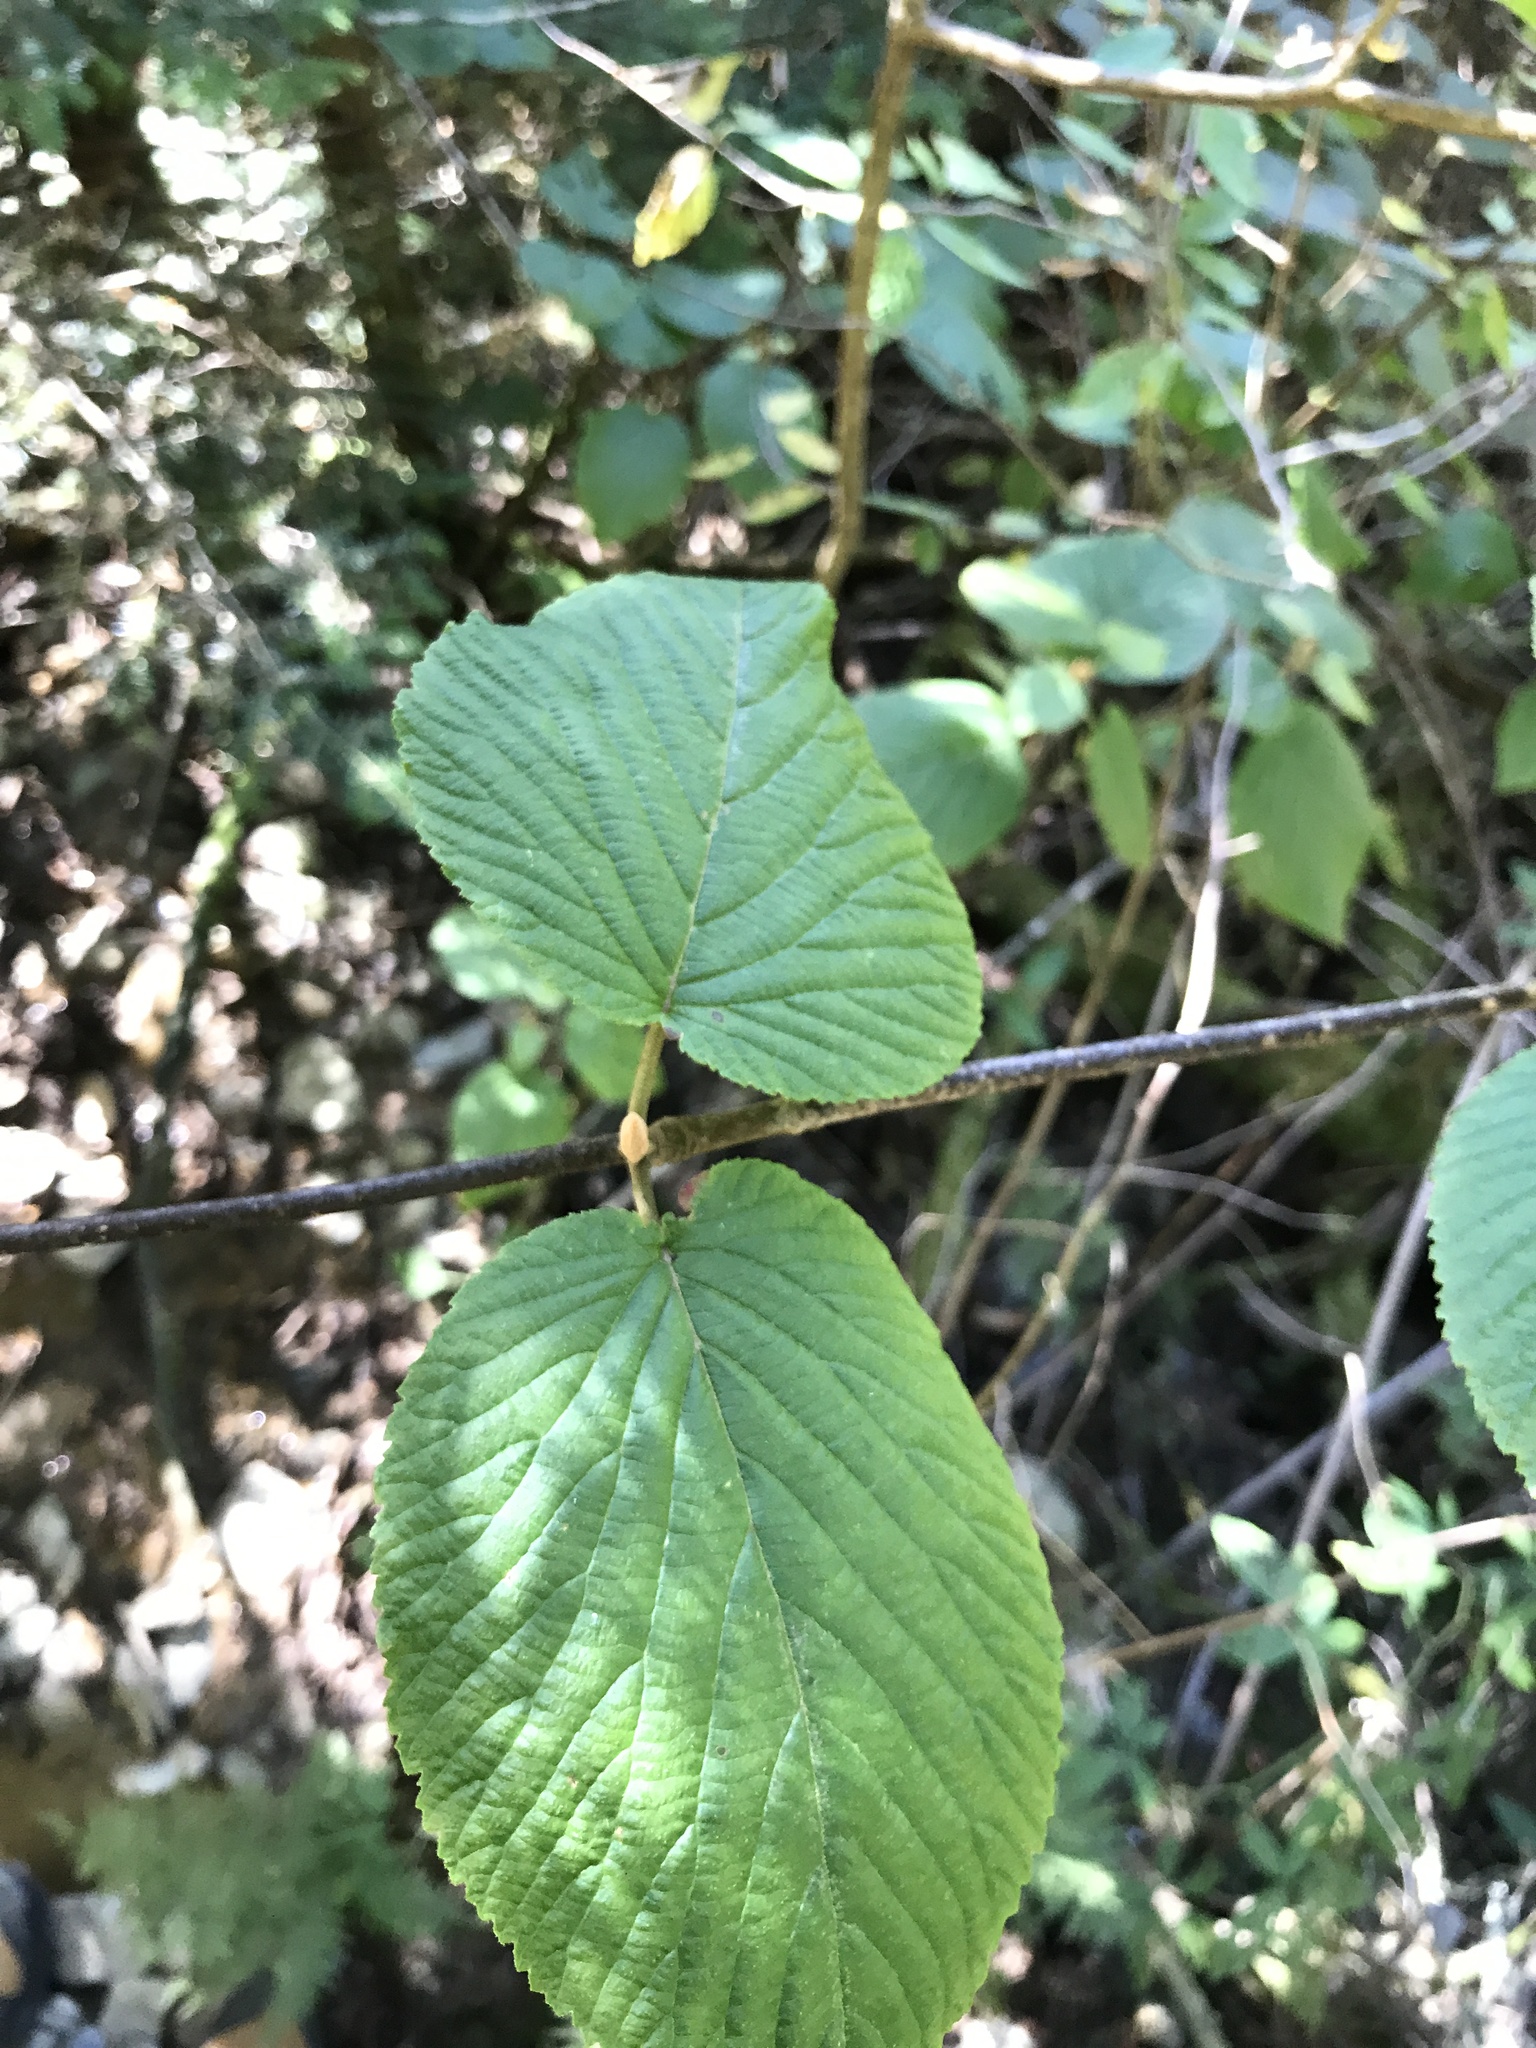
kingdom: Plantae
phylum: Tracheophyta
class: Magnoliopsida
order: Dipsacales
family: Viburnaceae
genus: Viburnum
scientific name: Viburnum lantanoides
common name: Hobblebush
